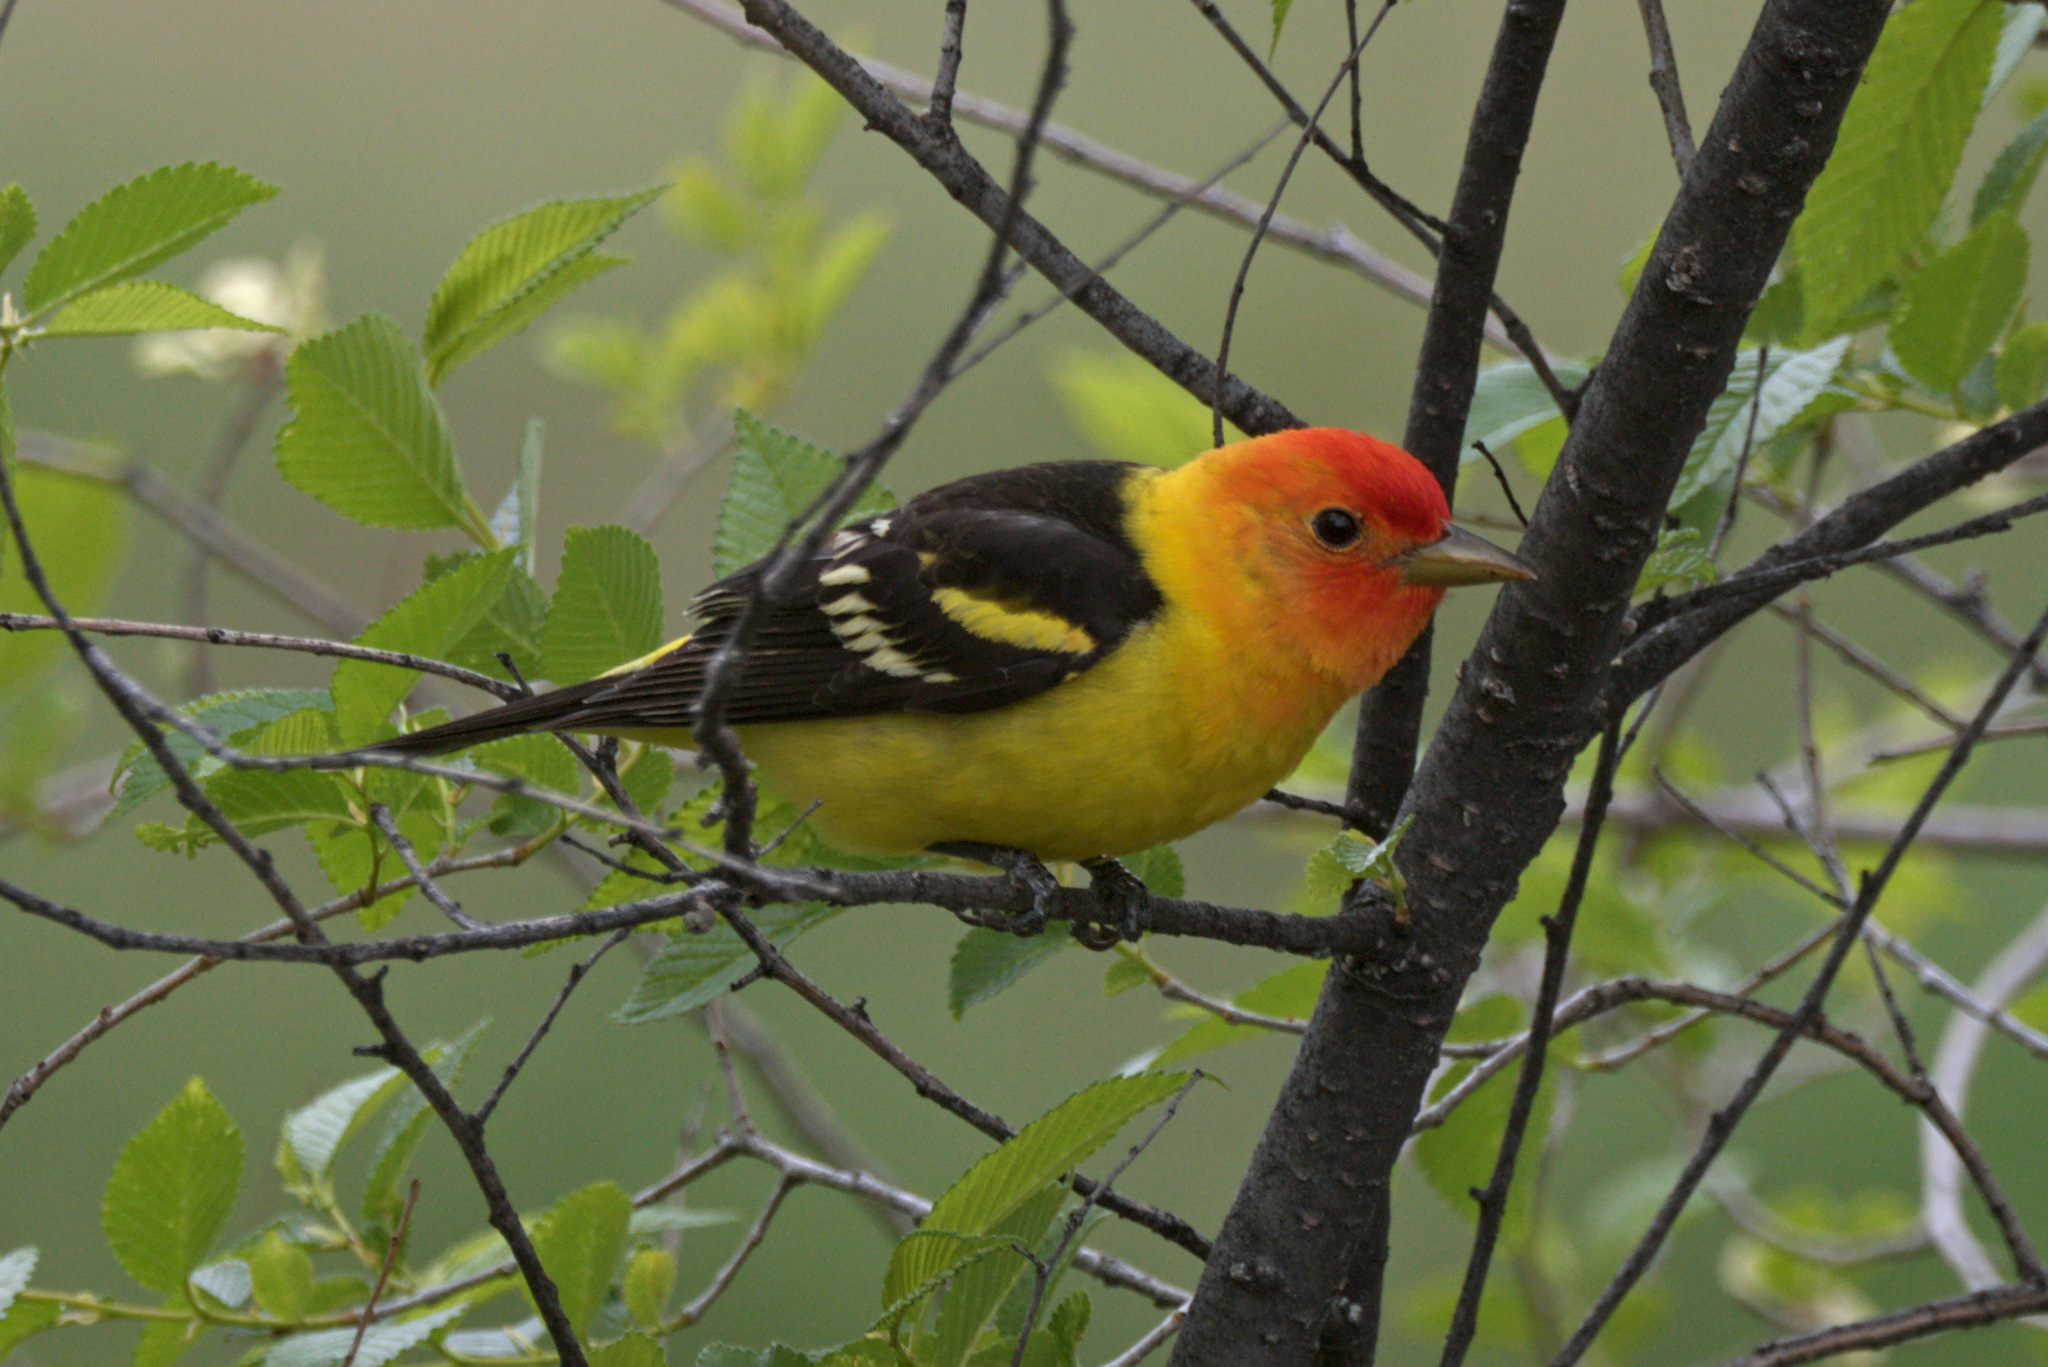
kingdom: Animalia
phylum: Chordata
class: Aves
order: Passeriformes
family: Cardinalidae
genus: Piranga
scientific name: Piranga ludoviciana
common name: Western tanager
